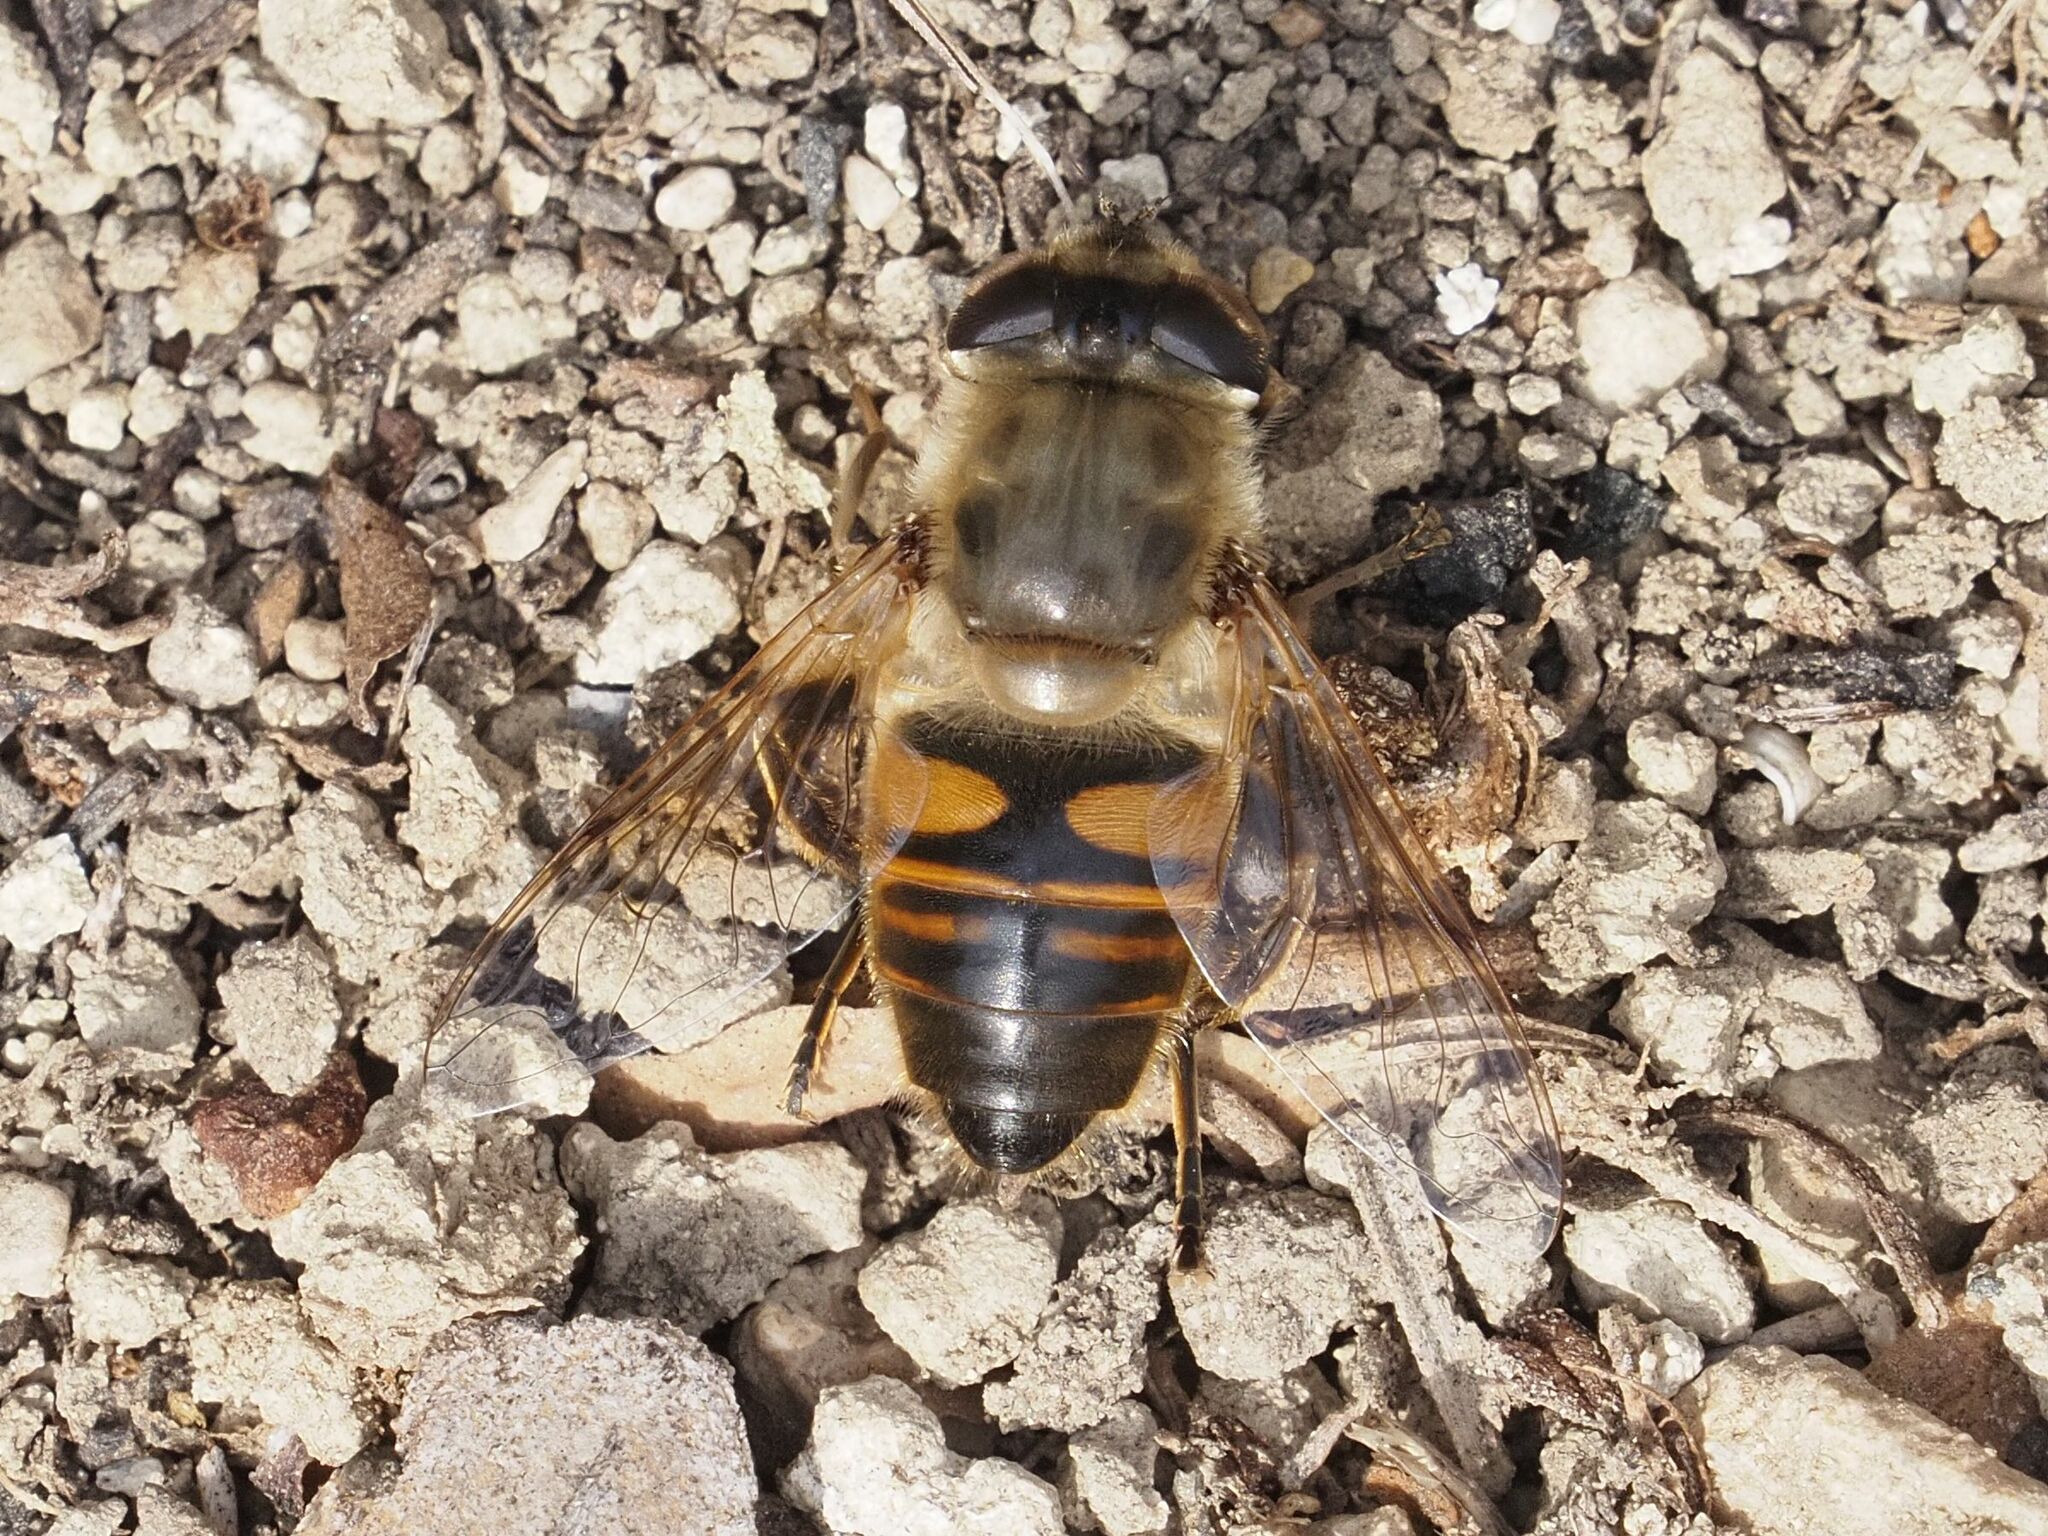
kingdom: Animalia
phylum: Arthropoda
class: Insecta
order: Diptera
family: Syrphidae
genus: Eristalis
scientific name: Eristalis tenax
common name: Drone fly
